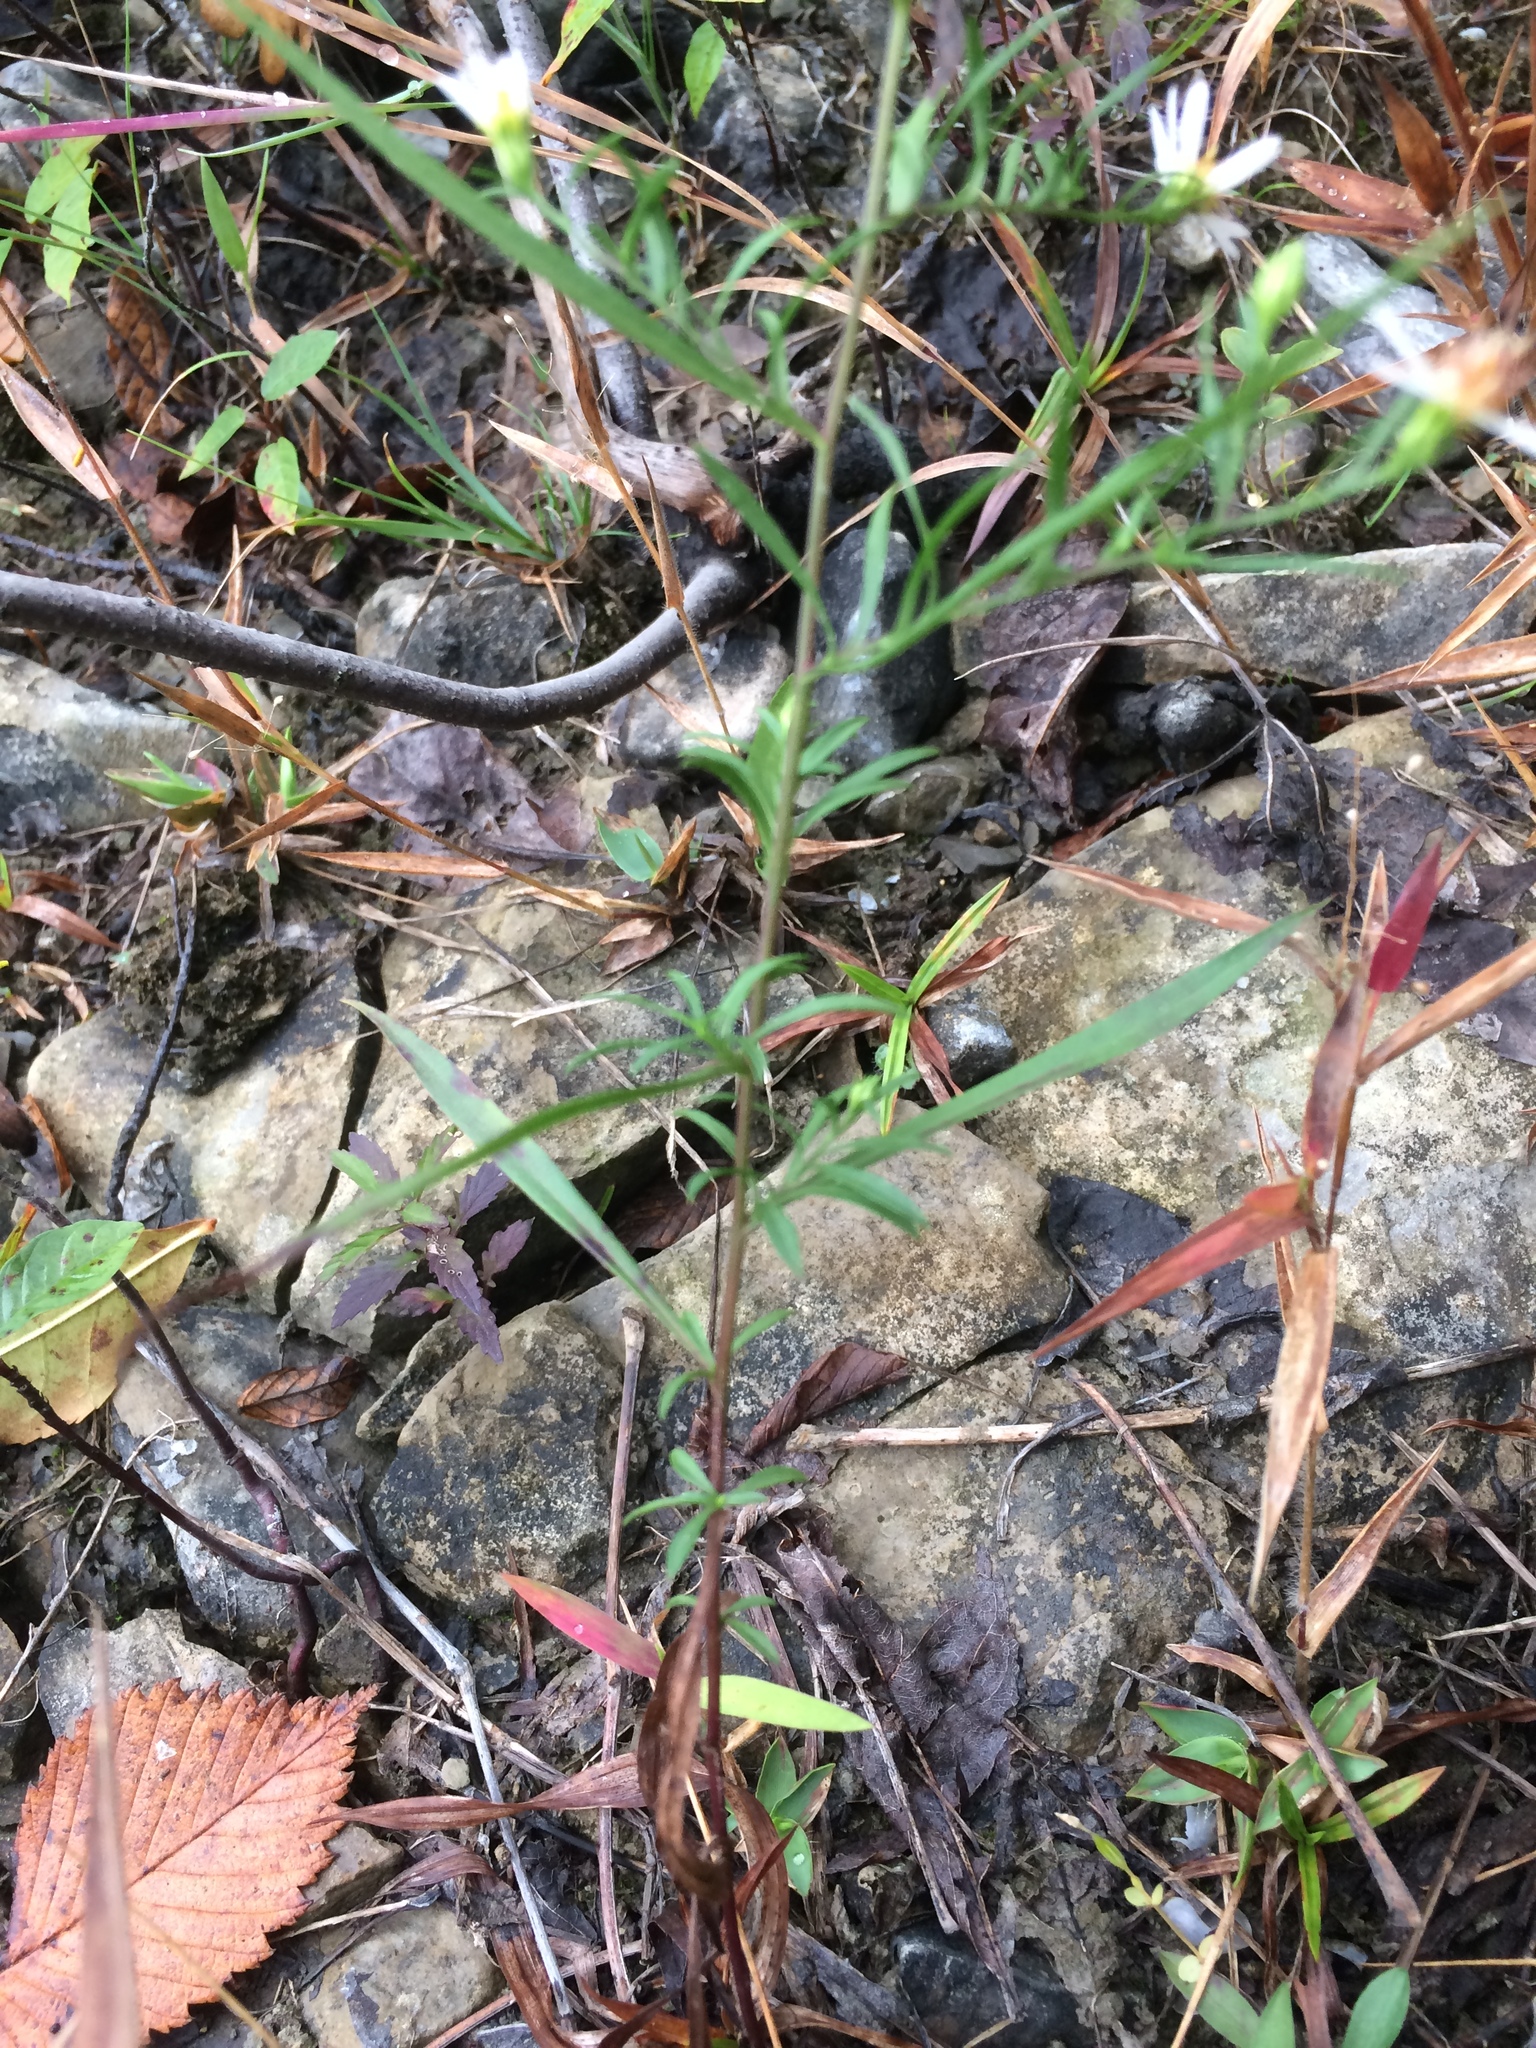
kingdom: Plantae
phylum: Tracheophyta
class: Magnoliopsida
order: Asterales
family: Asteraceae
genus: Symphyotrichum
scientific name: Symphyotrichum pilosum
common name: Awl aster
